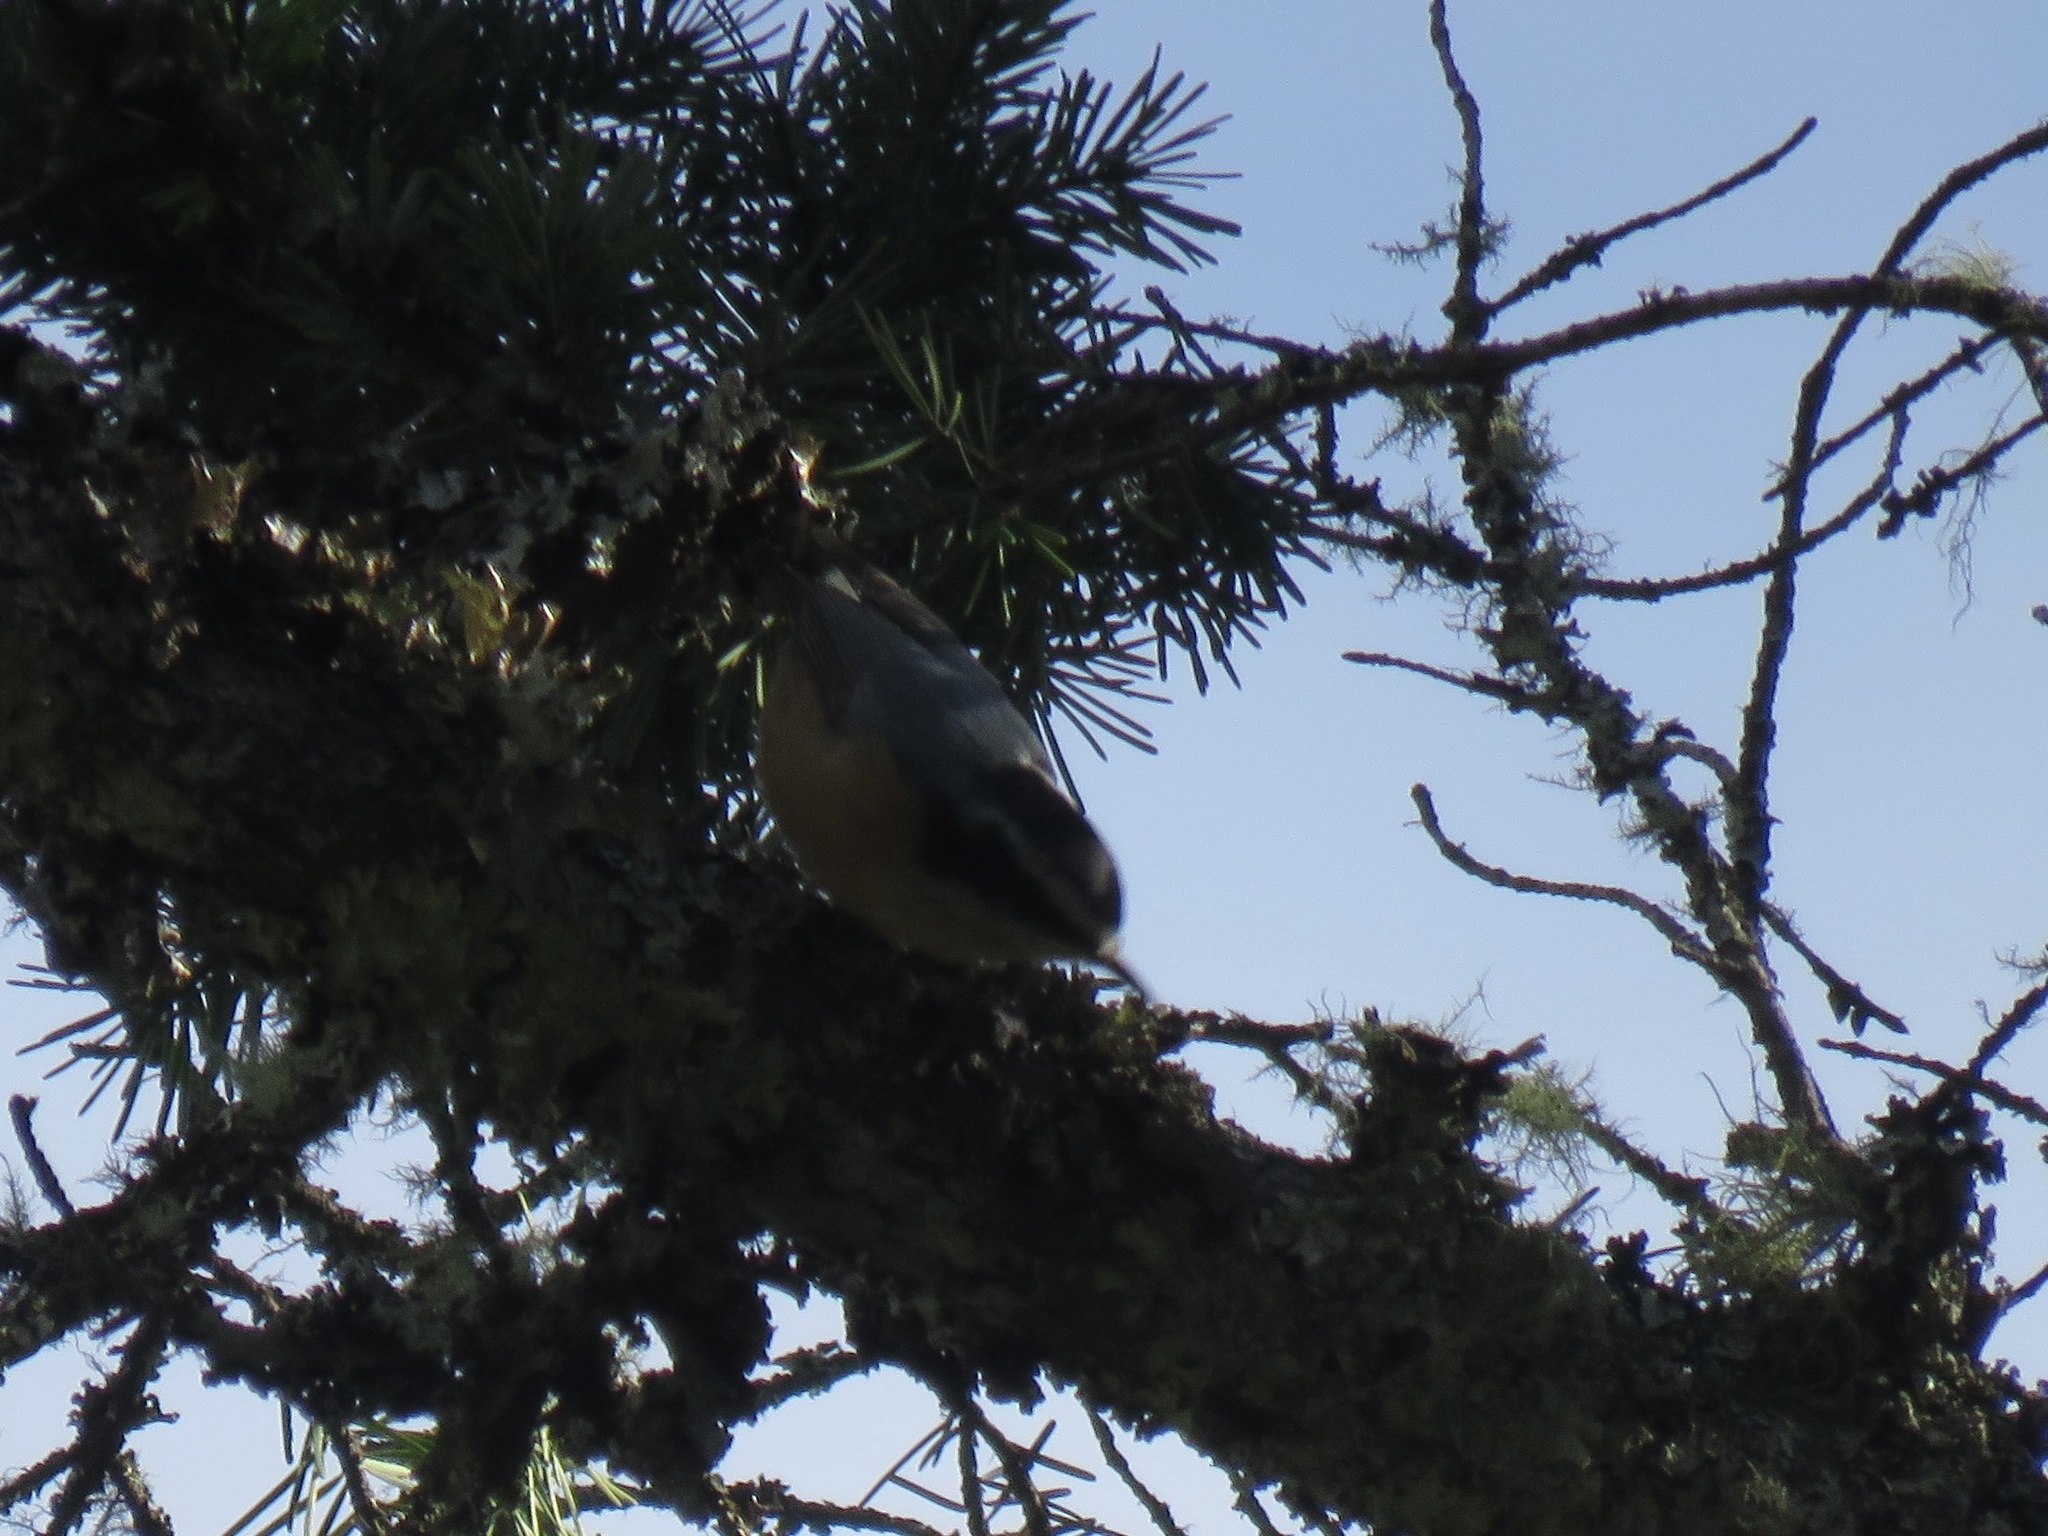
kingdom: Animalia
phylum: Chordata
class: Aves
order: Passeriformes
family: Sittidae
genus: Sitta
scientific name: Sitta canadensis
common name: Red-breasted nuthatch
